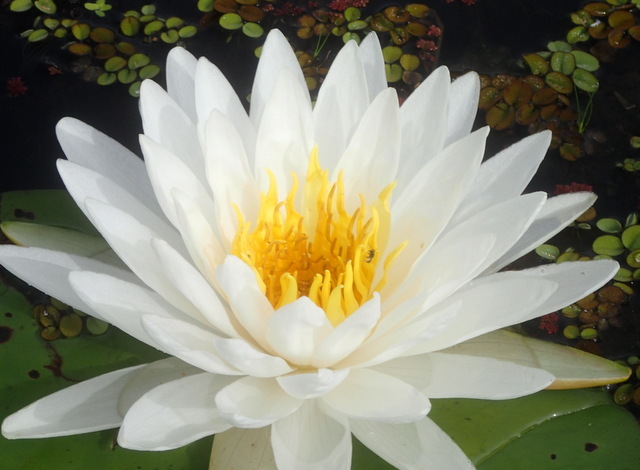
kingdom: Plantae
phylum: Tracheophyta
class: Magnoliopsida
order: Nymphaeales
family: Nymphaeaceae
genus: Nymphaea
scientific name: Nymphaea odorata
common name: Fragrant water-lily
